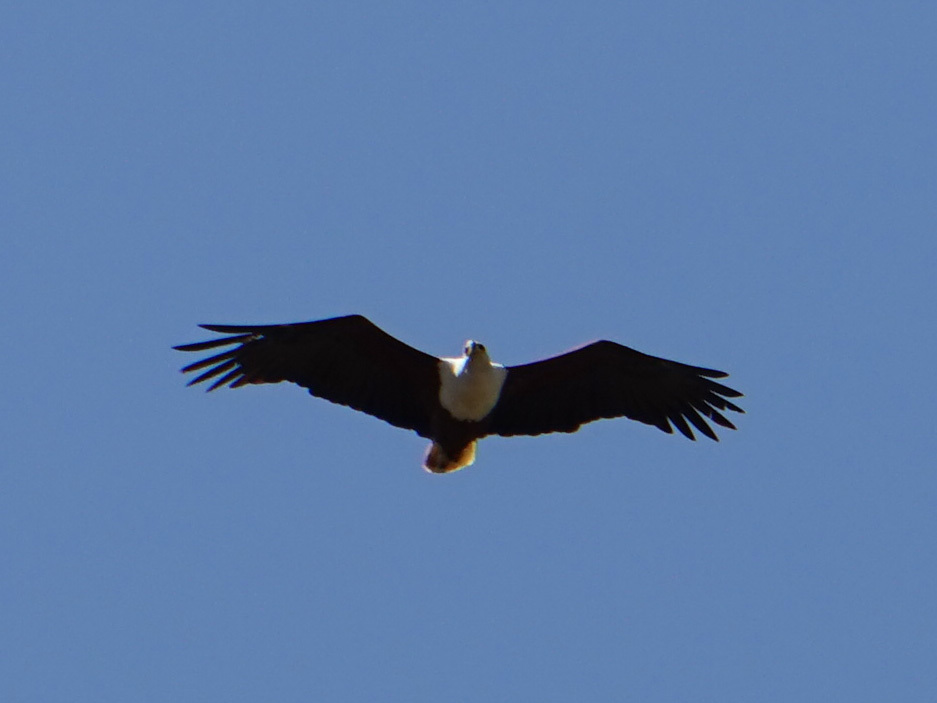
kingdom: Animalia
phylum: Chordata
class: Aves
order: Accipitriformes
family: Accipitridae
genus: Haliaeetus
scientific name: Haliaeetus vocifer
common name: African fish eagle
